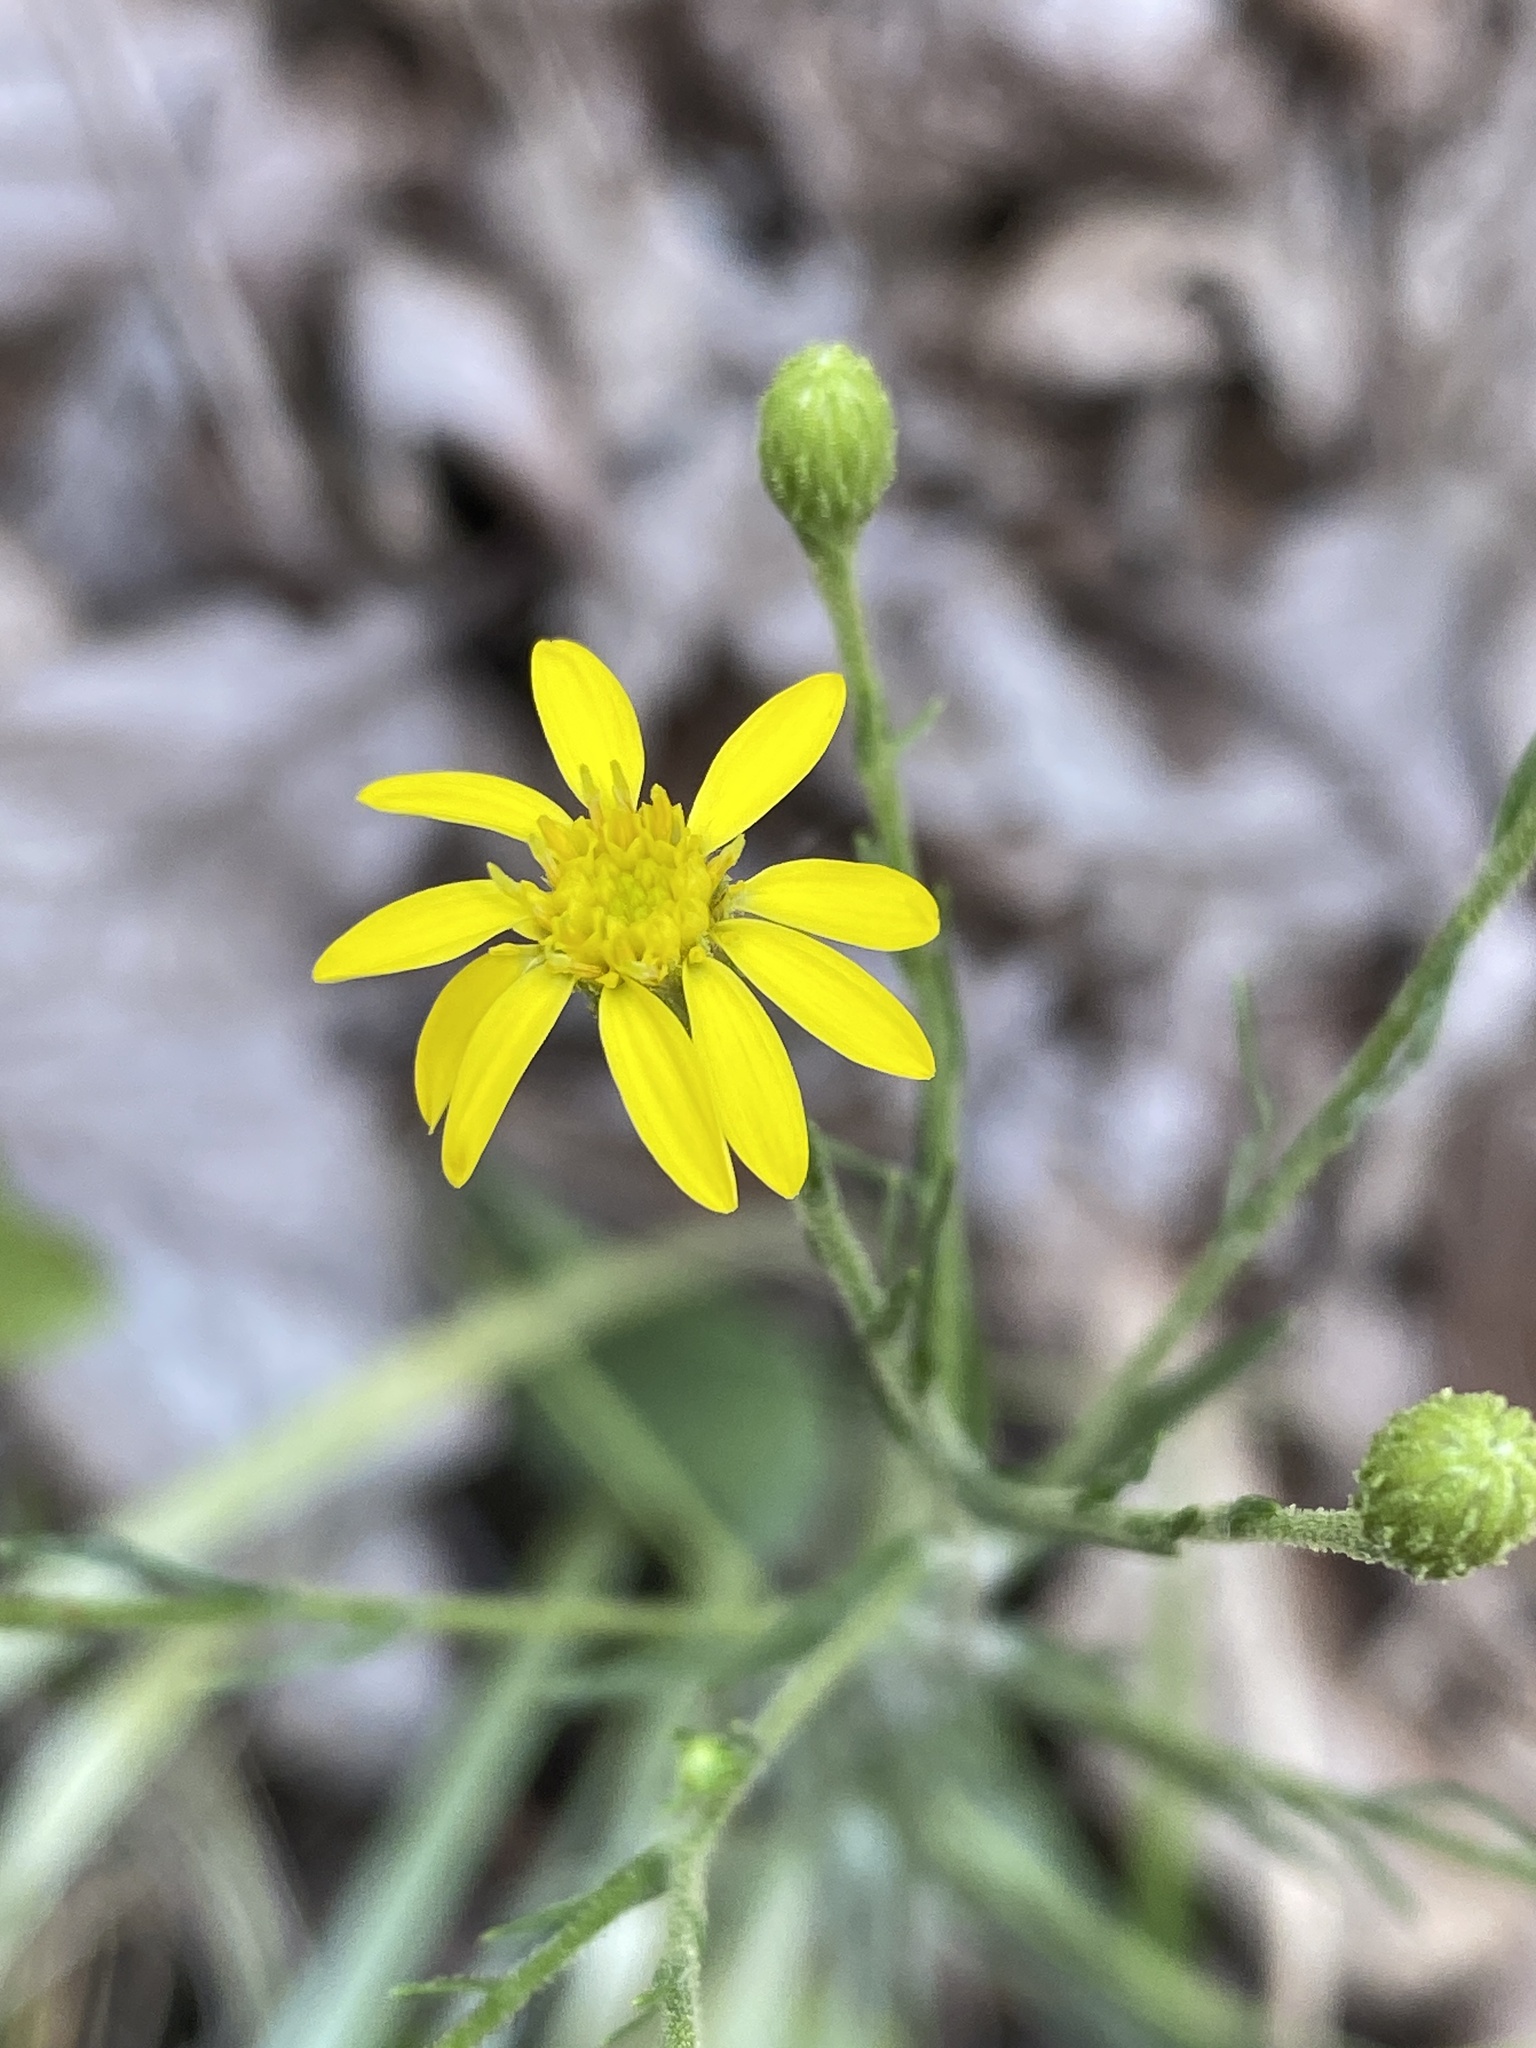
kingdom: Plantae
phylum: Tracheophyta
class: Magnoliopsida
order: Asterales
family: Asteraceae
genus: Pityopsis
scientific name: Pityopsis aspera
